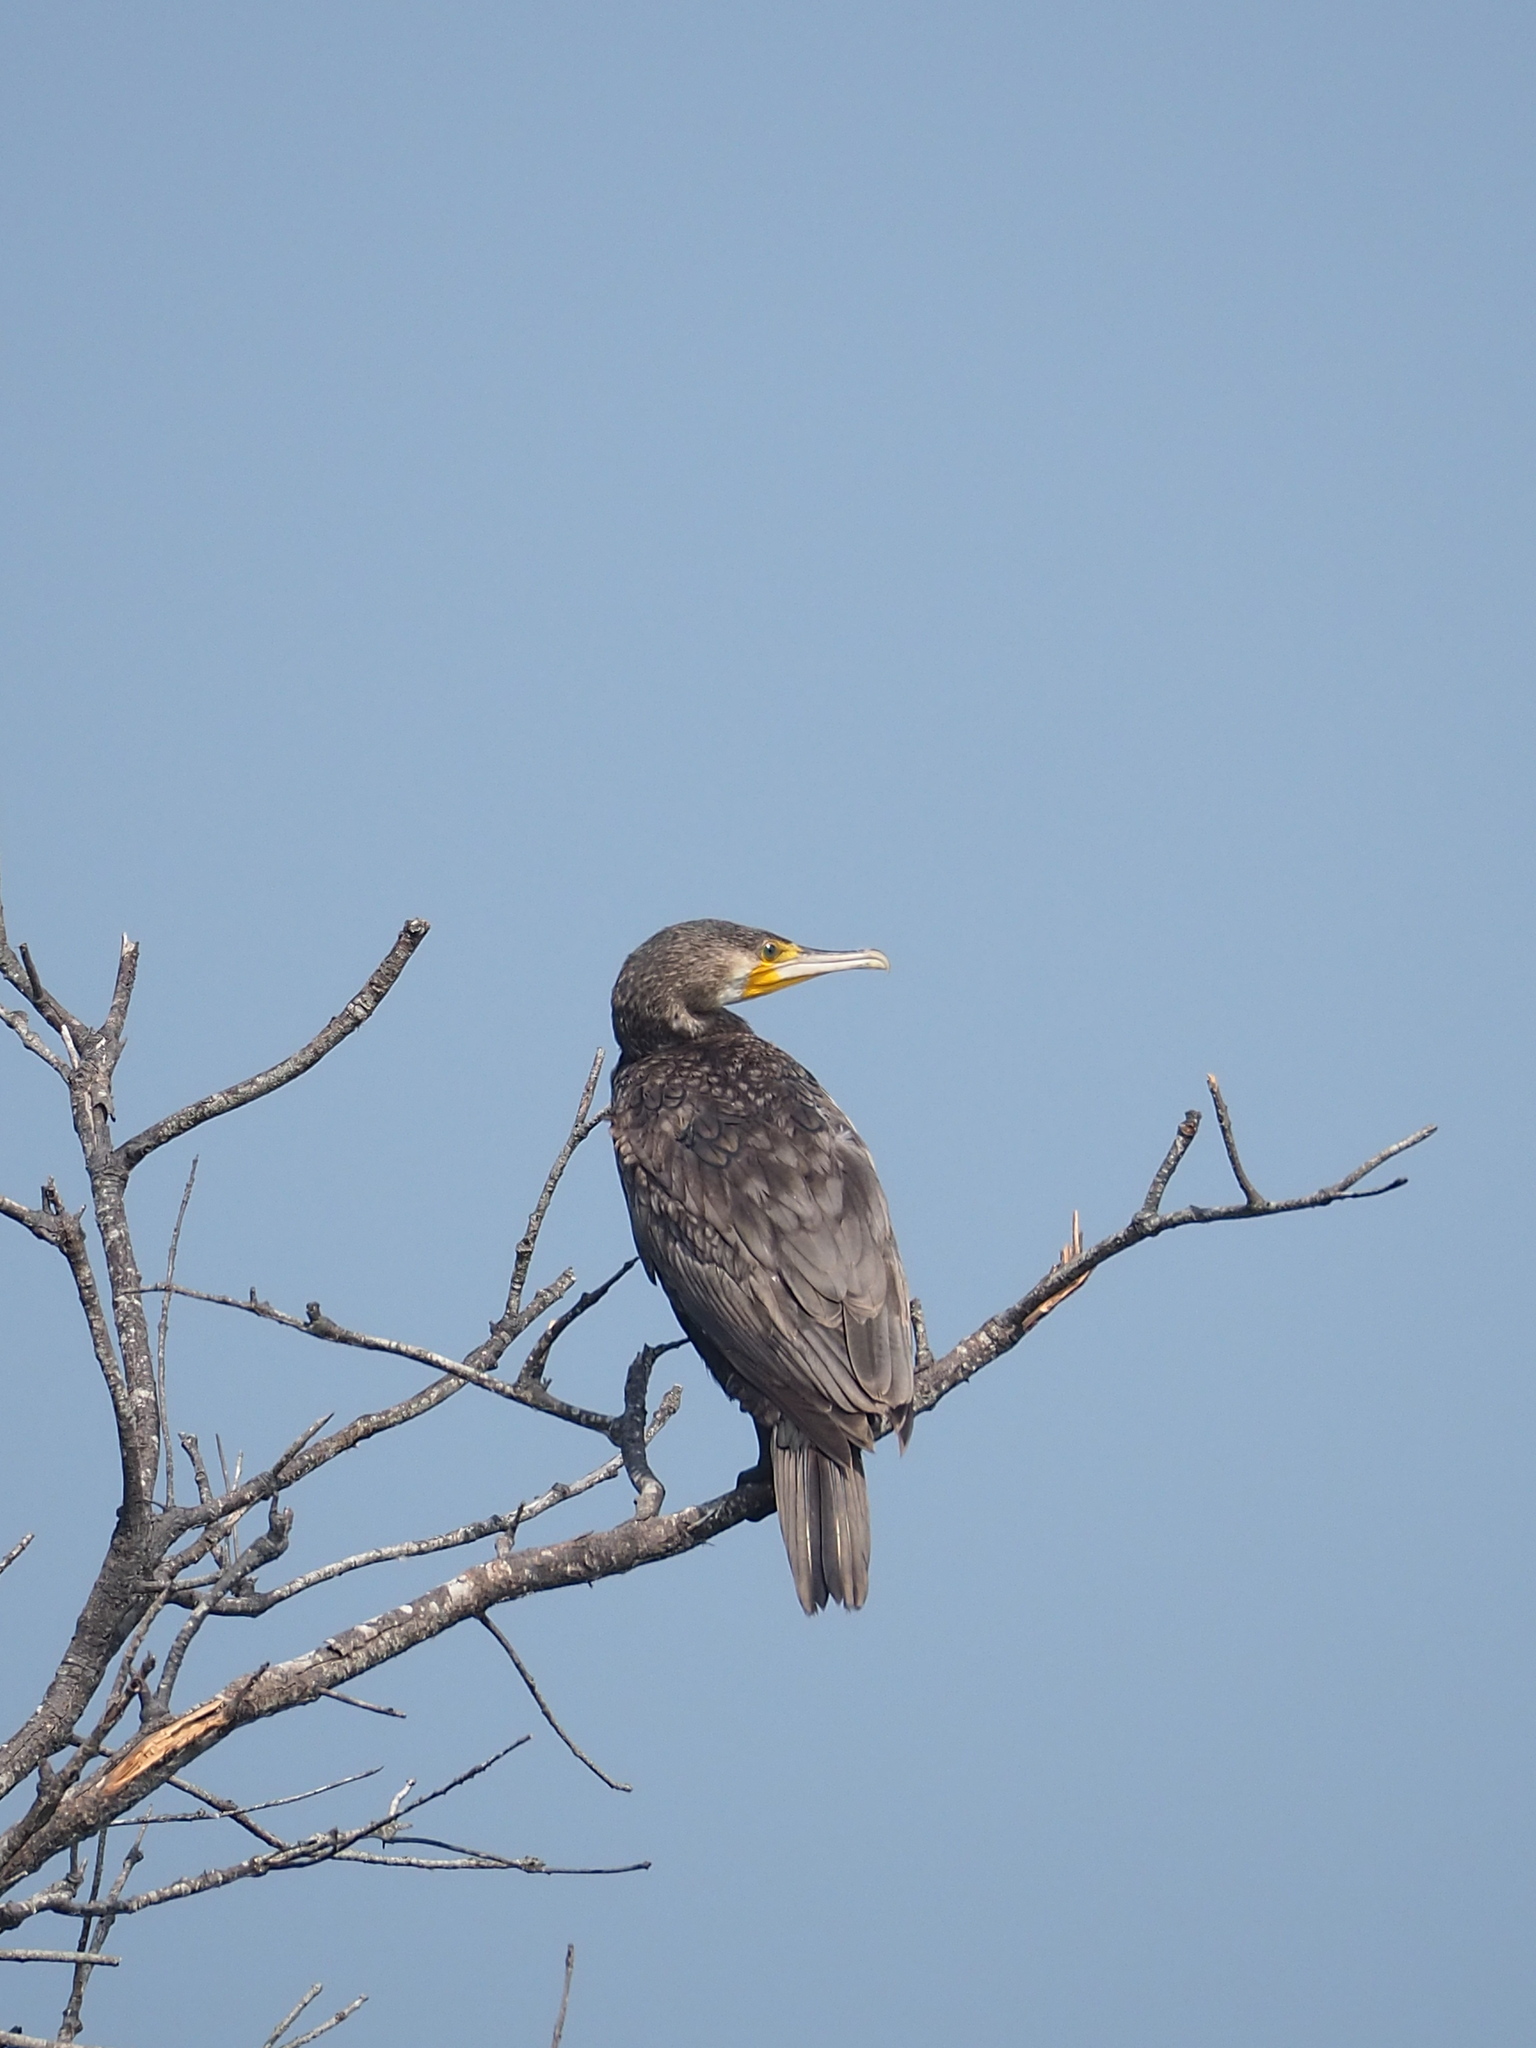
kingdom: Animalia
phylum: Chordata
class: Aves
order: Suliformes
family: Phalacrocoracidae
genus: Phalacrocorax
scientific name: Phalacrocorax carbo
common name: Great cormorant
